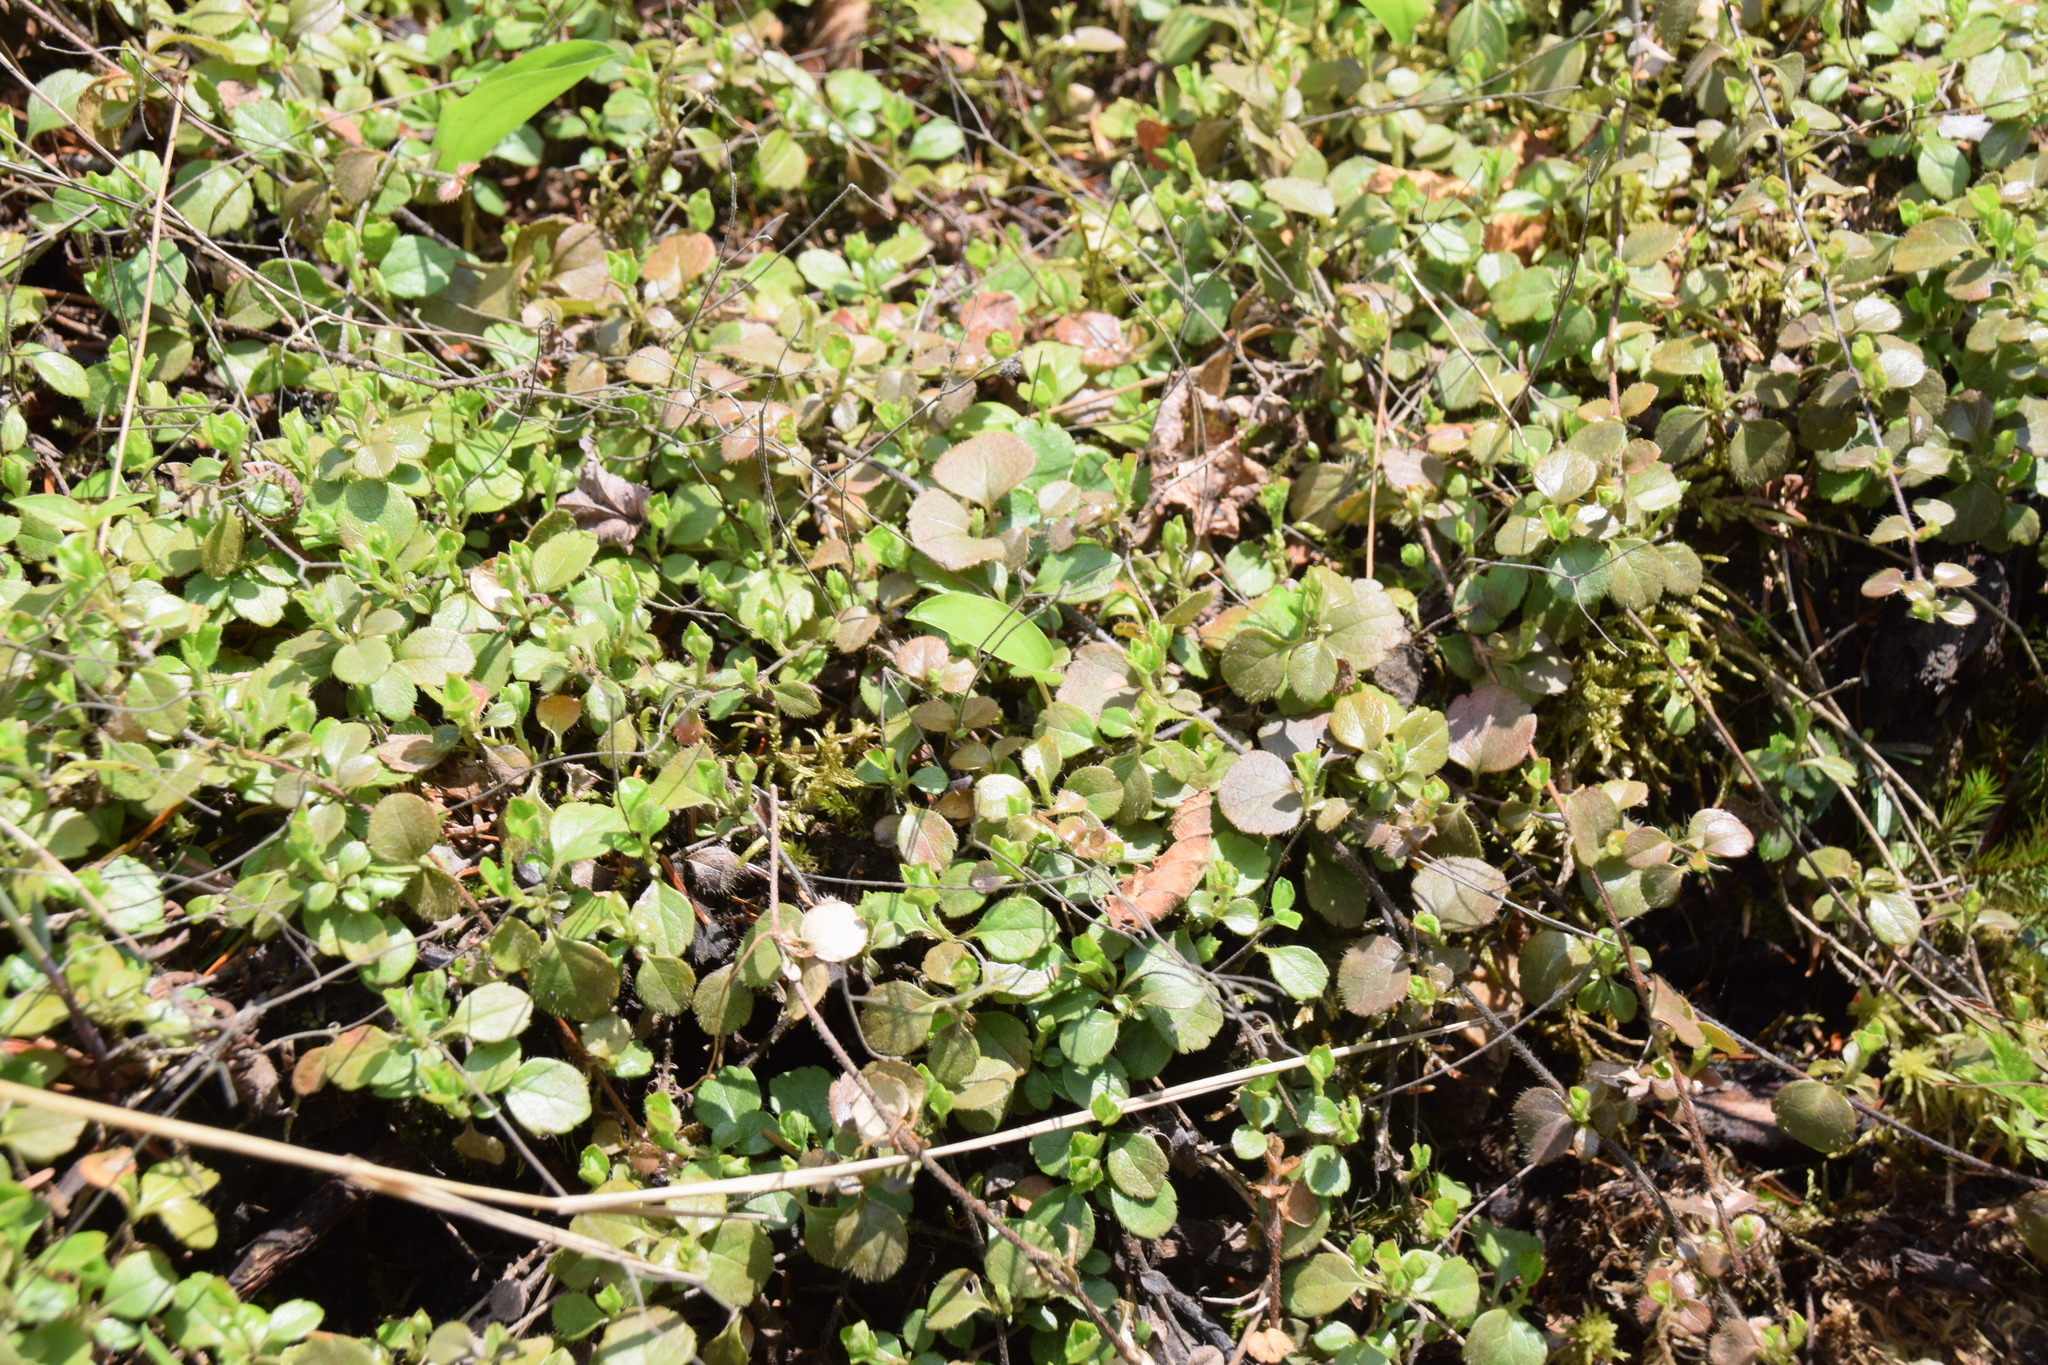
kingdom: Plantae
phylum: Tracheophyta
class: Magnoliopsida
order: Dipsacales
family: Caprifoliaceae
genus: Linnaea
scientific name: Linnaea borealis
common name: Twinflower
